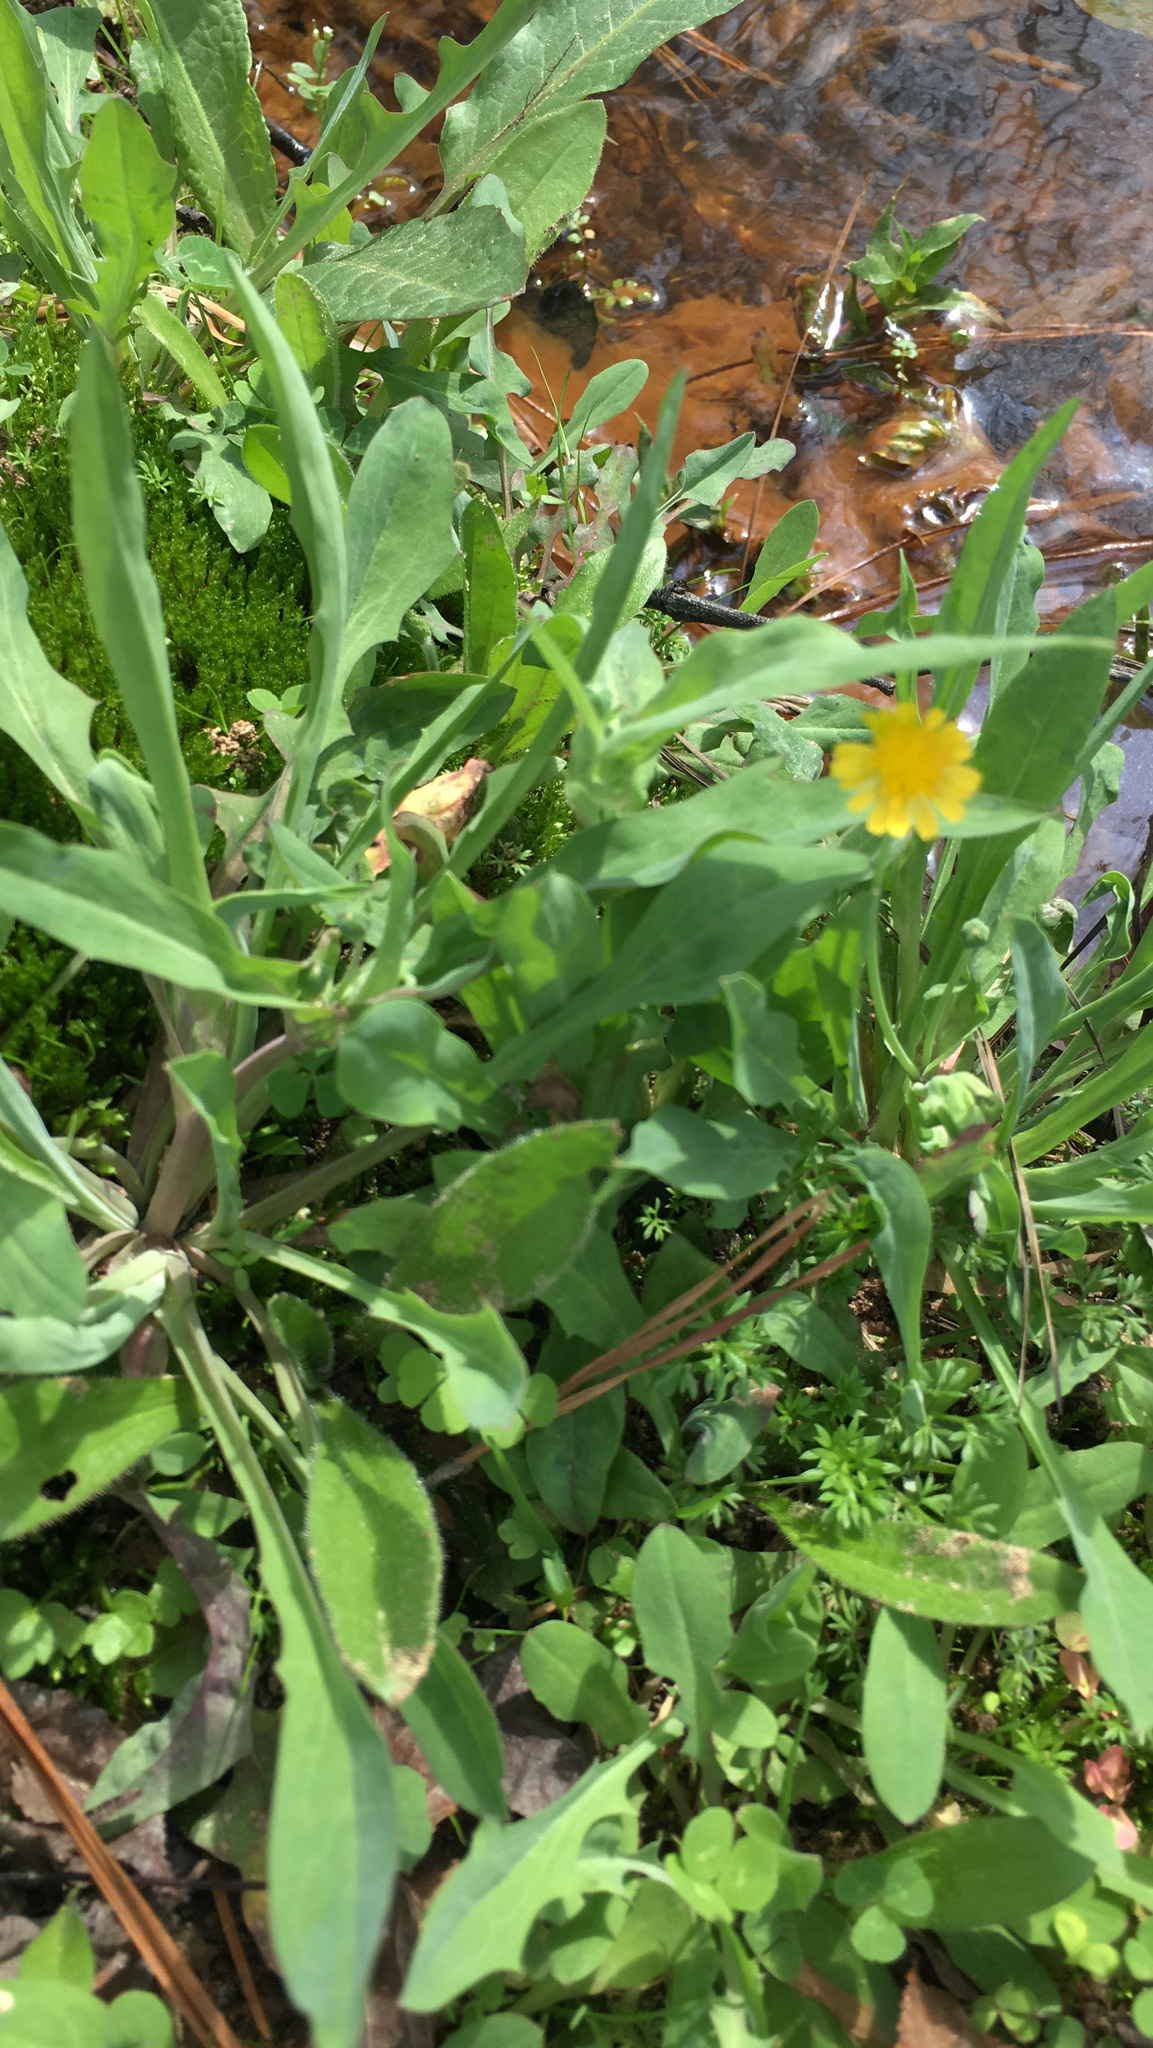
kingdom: Plantae
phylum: Tracheophyta
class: Magnoliopsida
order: Asterales
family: Asteraceae
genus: Krigia
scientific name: Krigia cespitosa
